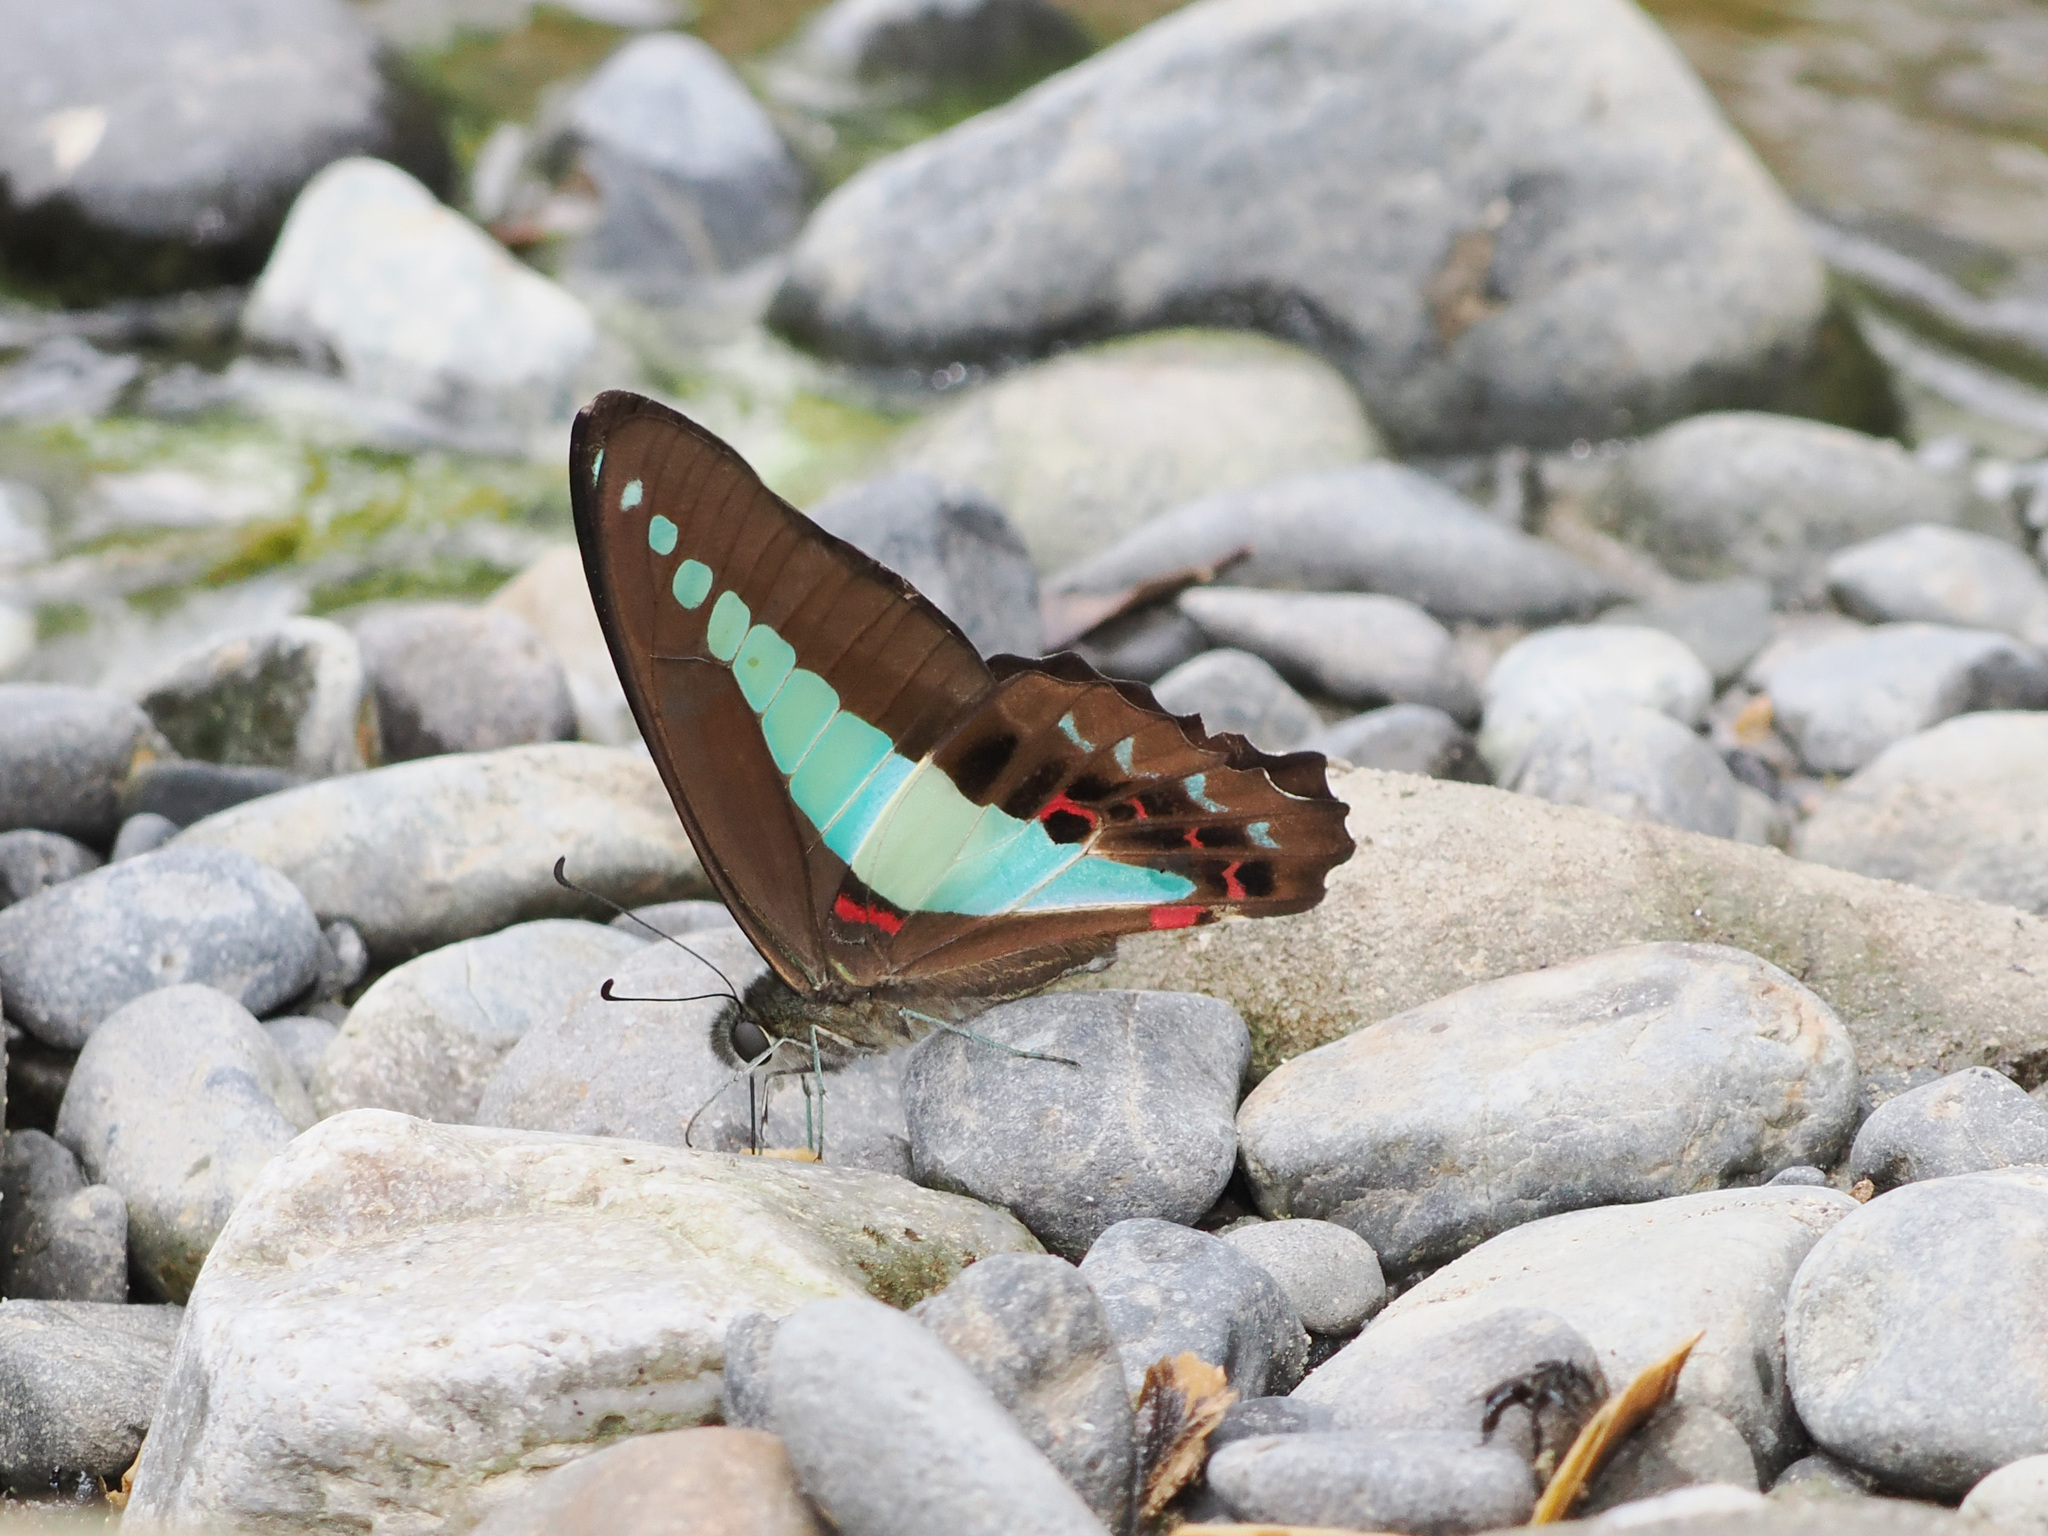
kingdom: Fungi
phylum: Ascomycota
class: Sordariomycetes
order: Microascales
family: Microascaceae
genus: Graphium
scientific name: Graphium sarpedon
